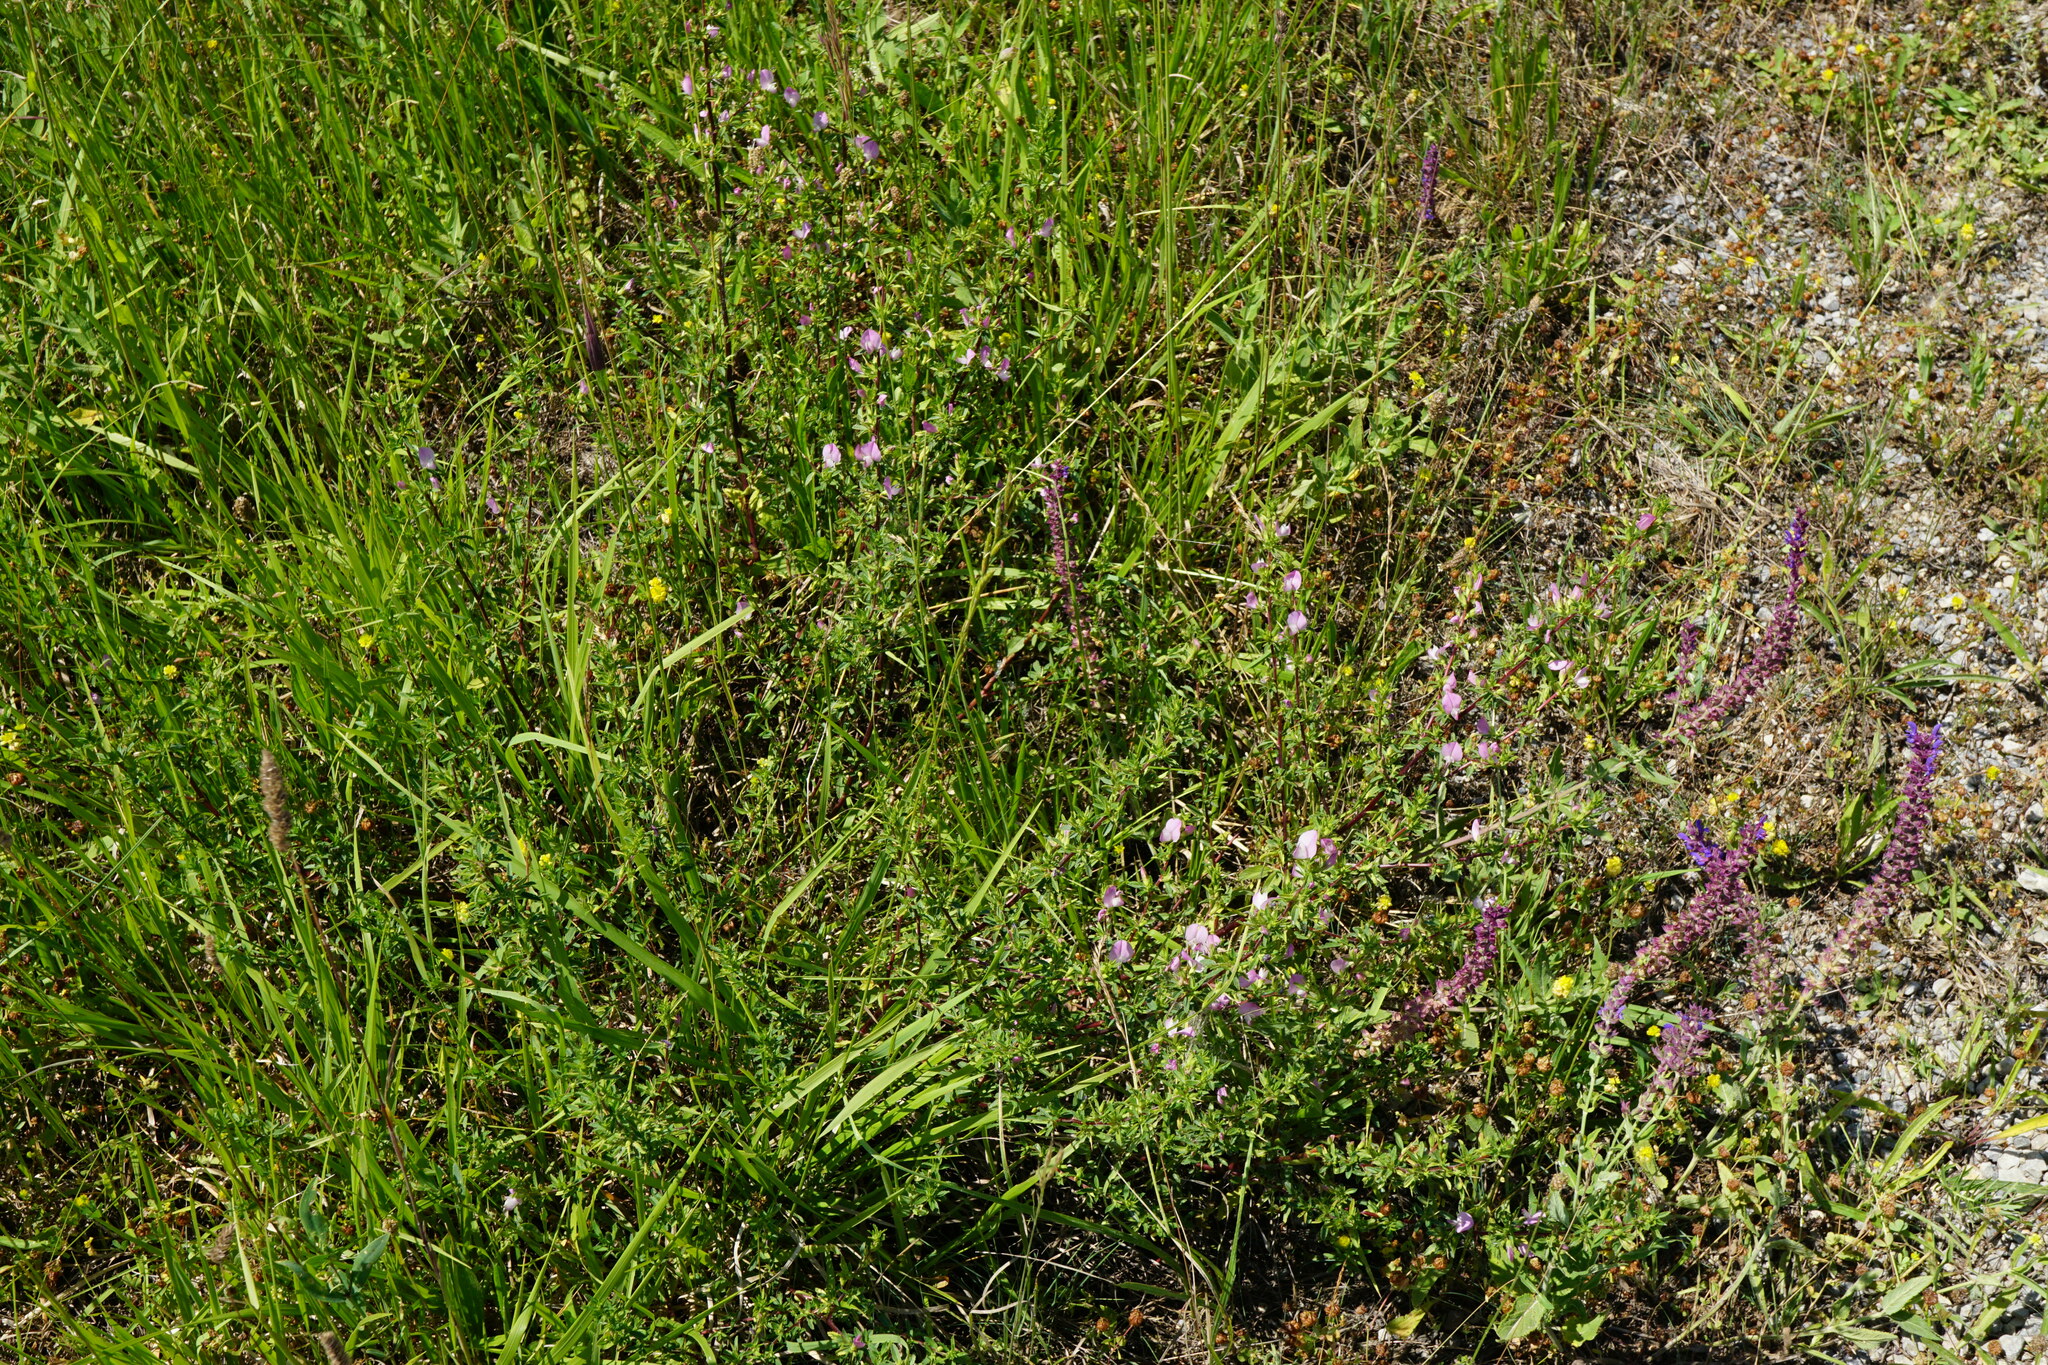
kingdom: Plantae
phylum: Tracheophyta
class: Magnoliopsida
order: Fabales
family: Fabaceae
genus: Ononis
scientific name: Ononis spinosa
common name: Spiny restharrow
